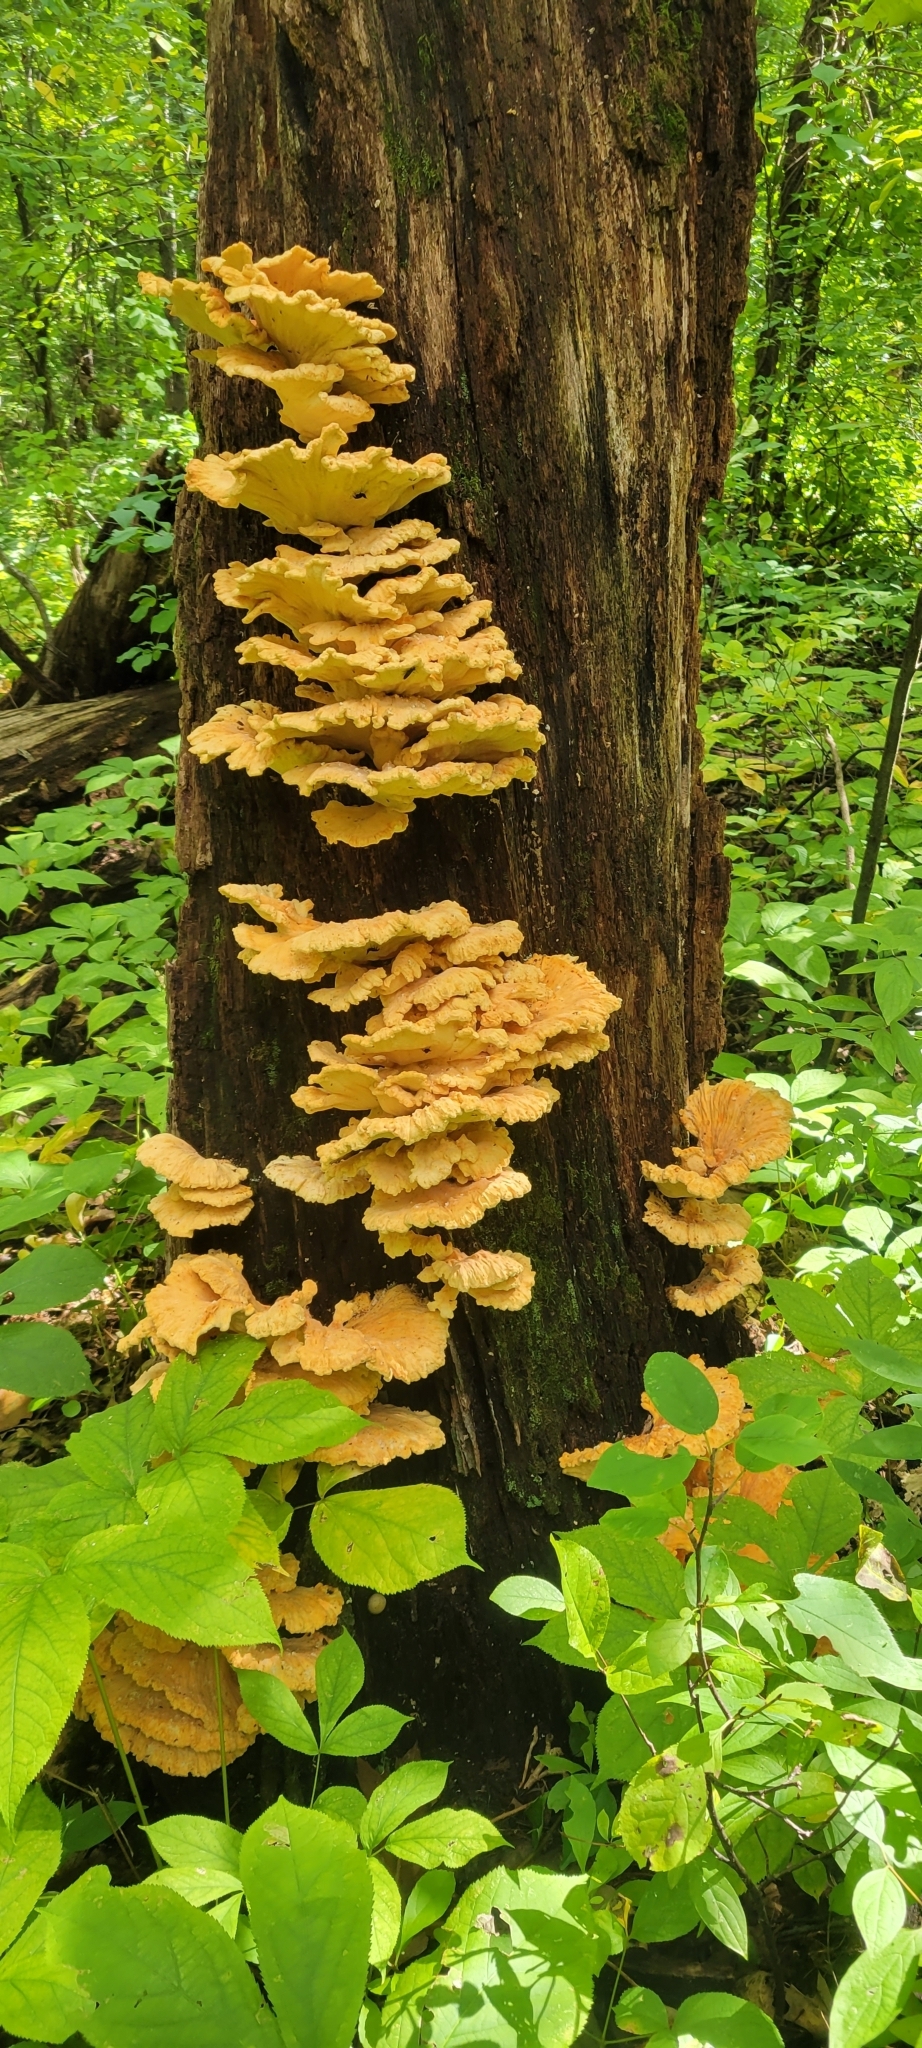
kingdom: Fungi
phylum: Basidiomycota
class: Agaricomycetes
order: Polyporales
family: Laetiporaceae
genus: Laetiporus
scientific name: Laetiporus sulphureus
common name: Chicken of the woods
